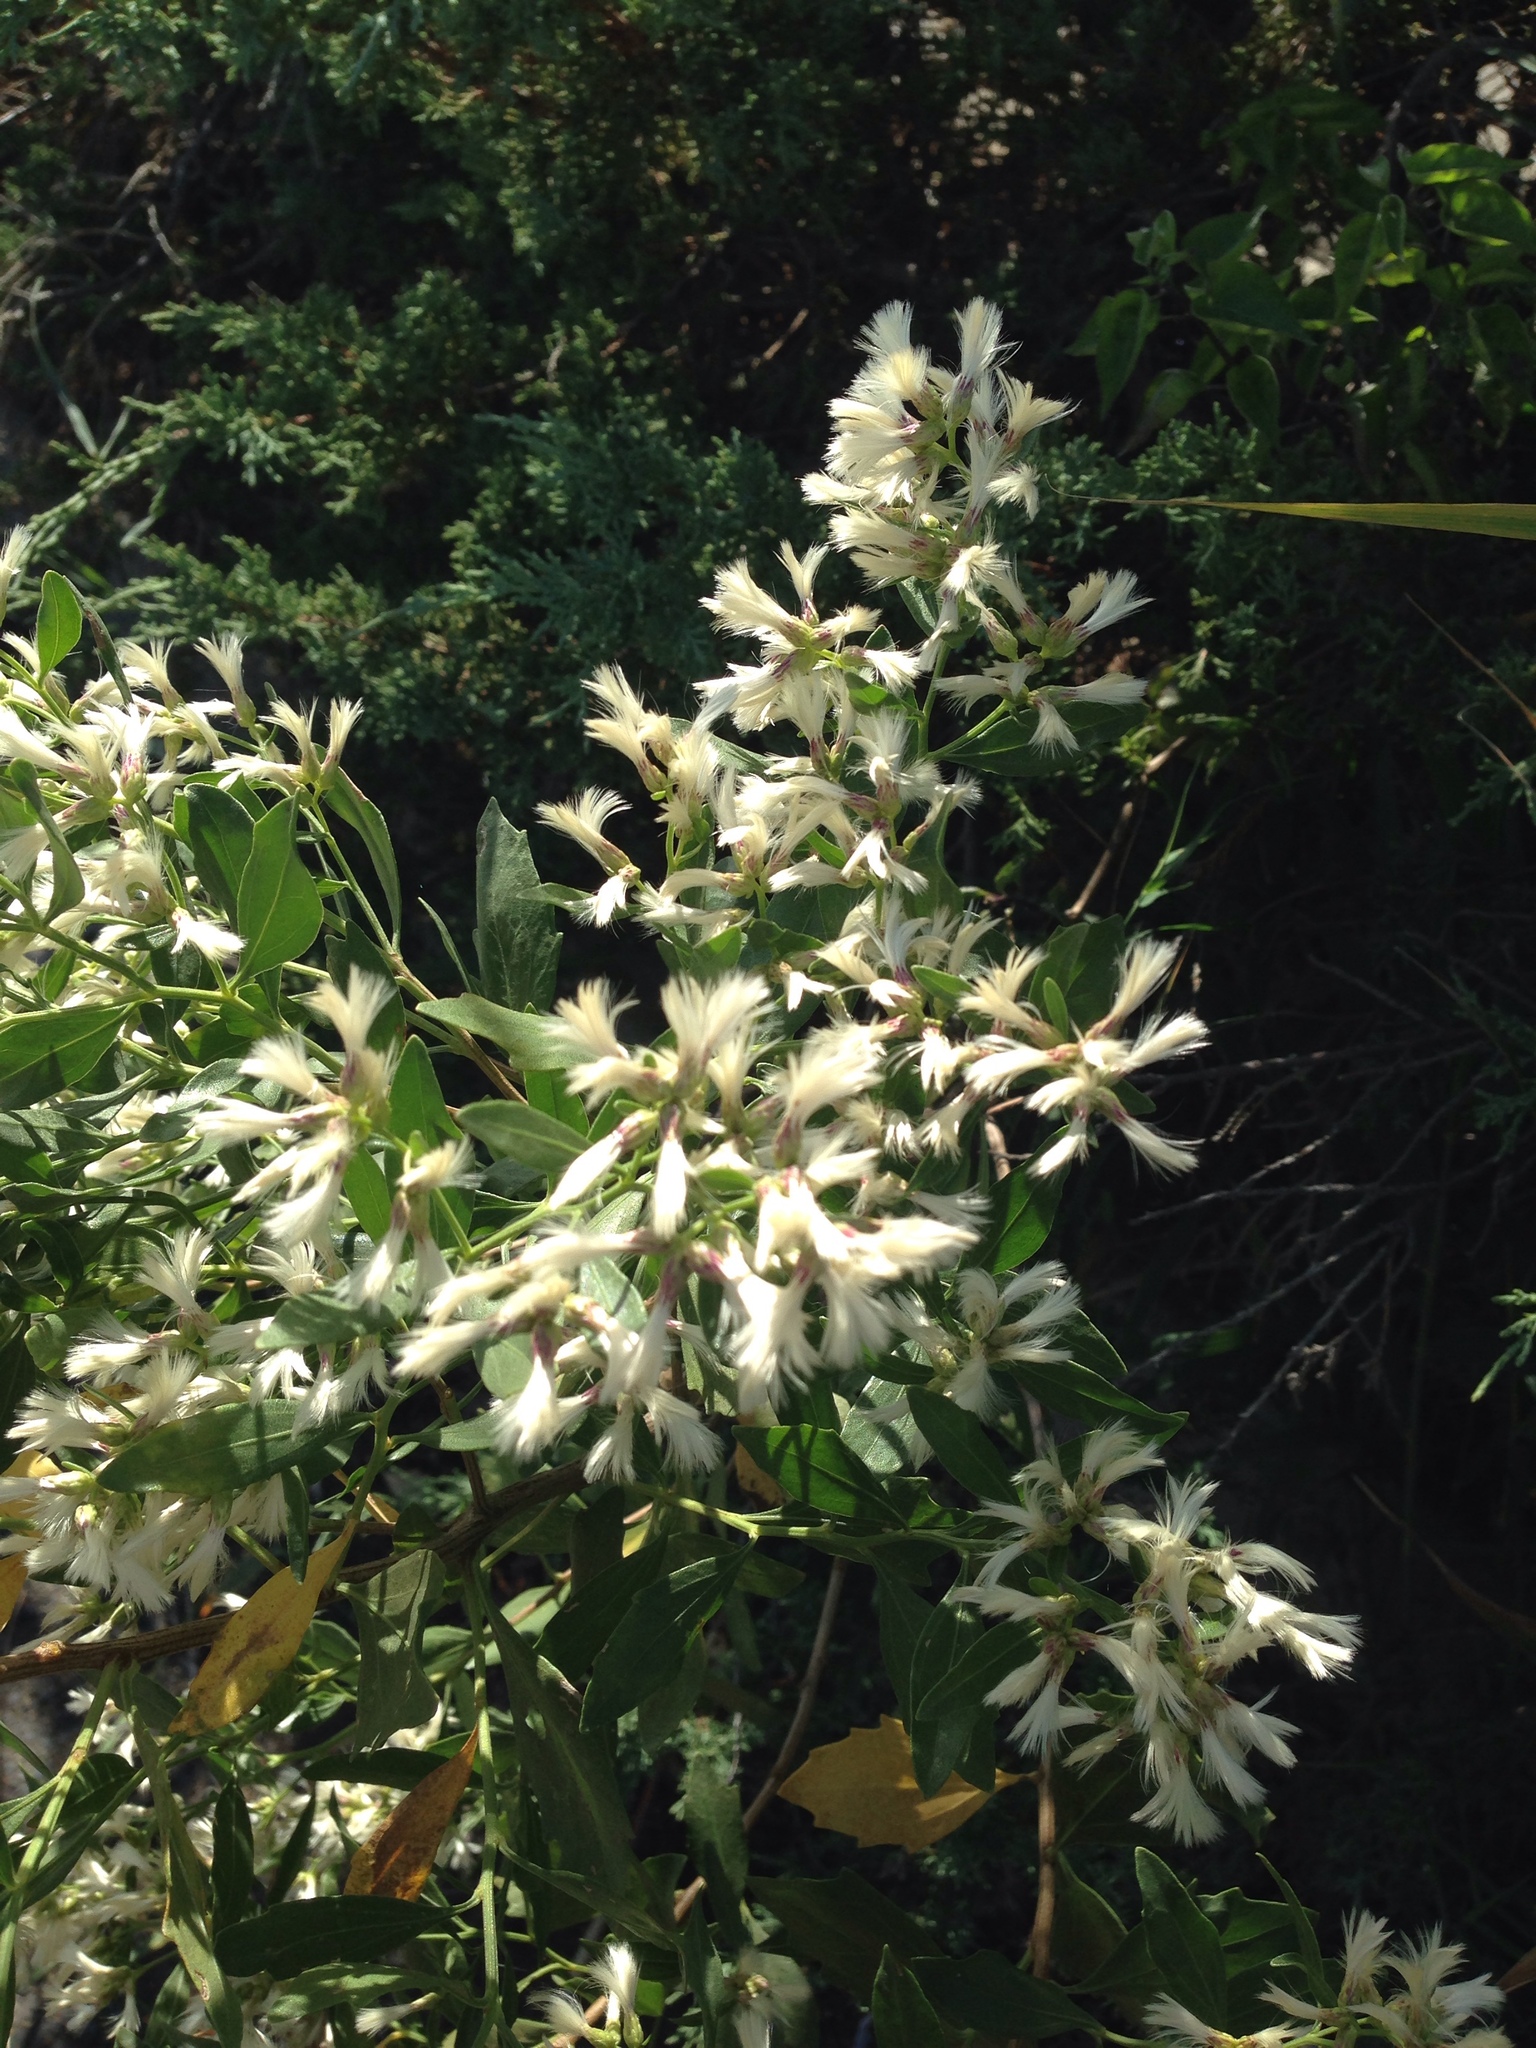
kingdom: Plantae
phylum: Tracheophyta
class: Magnoliopsida
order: Asterales
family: Asteraceae
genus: Baccharis
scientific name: Baccharis halimifolia
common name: Eastern baccharis
